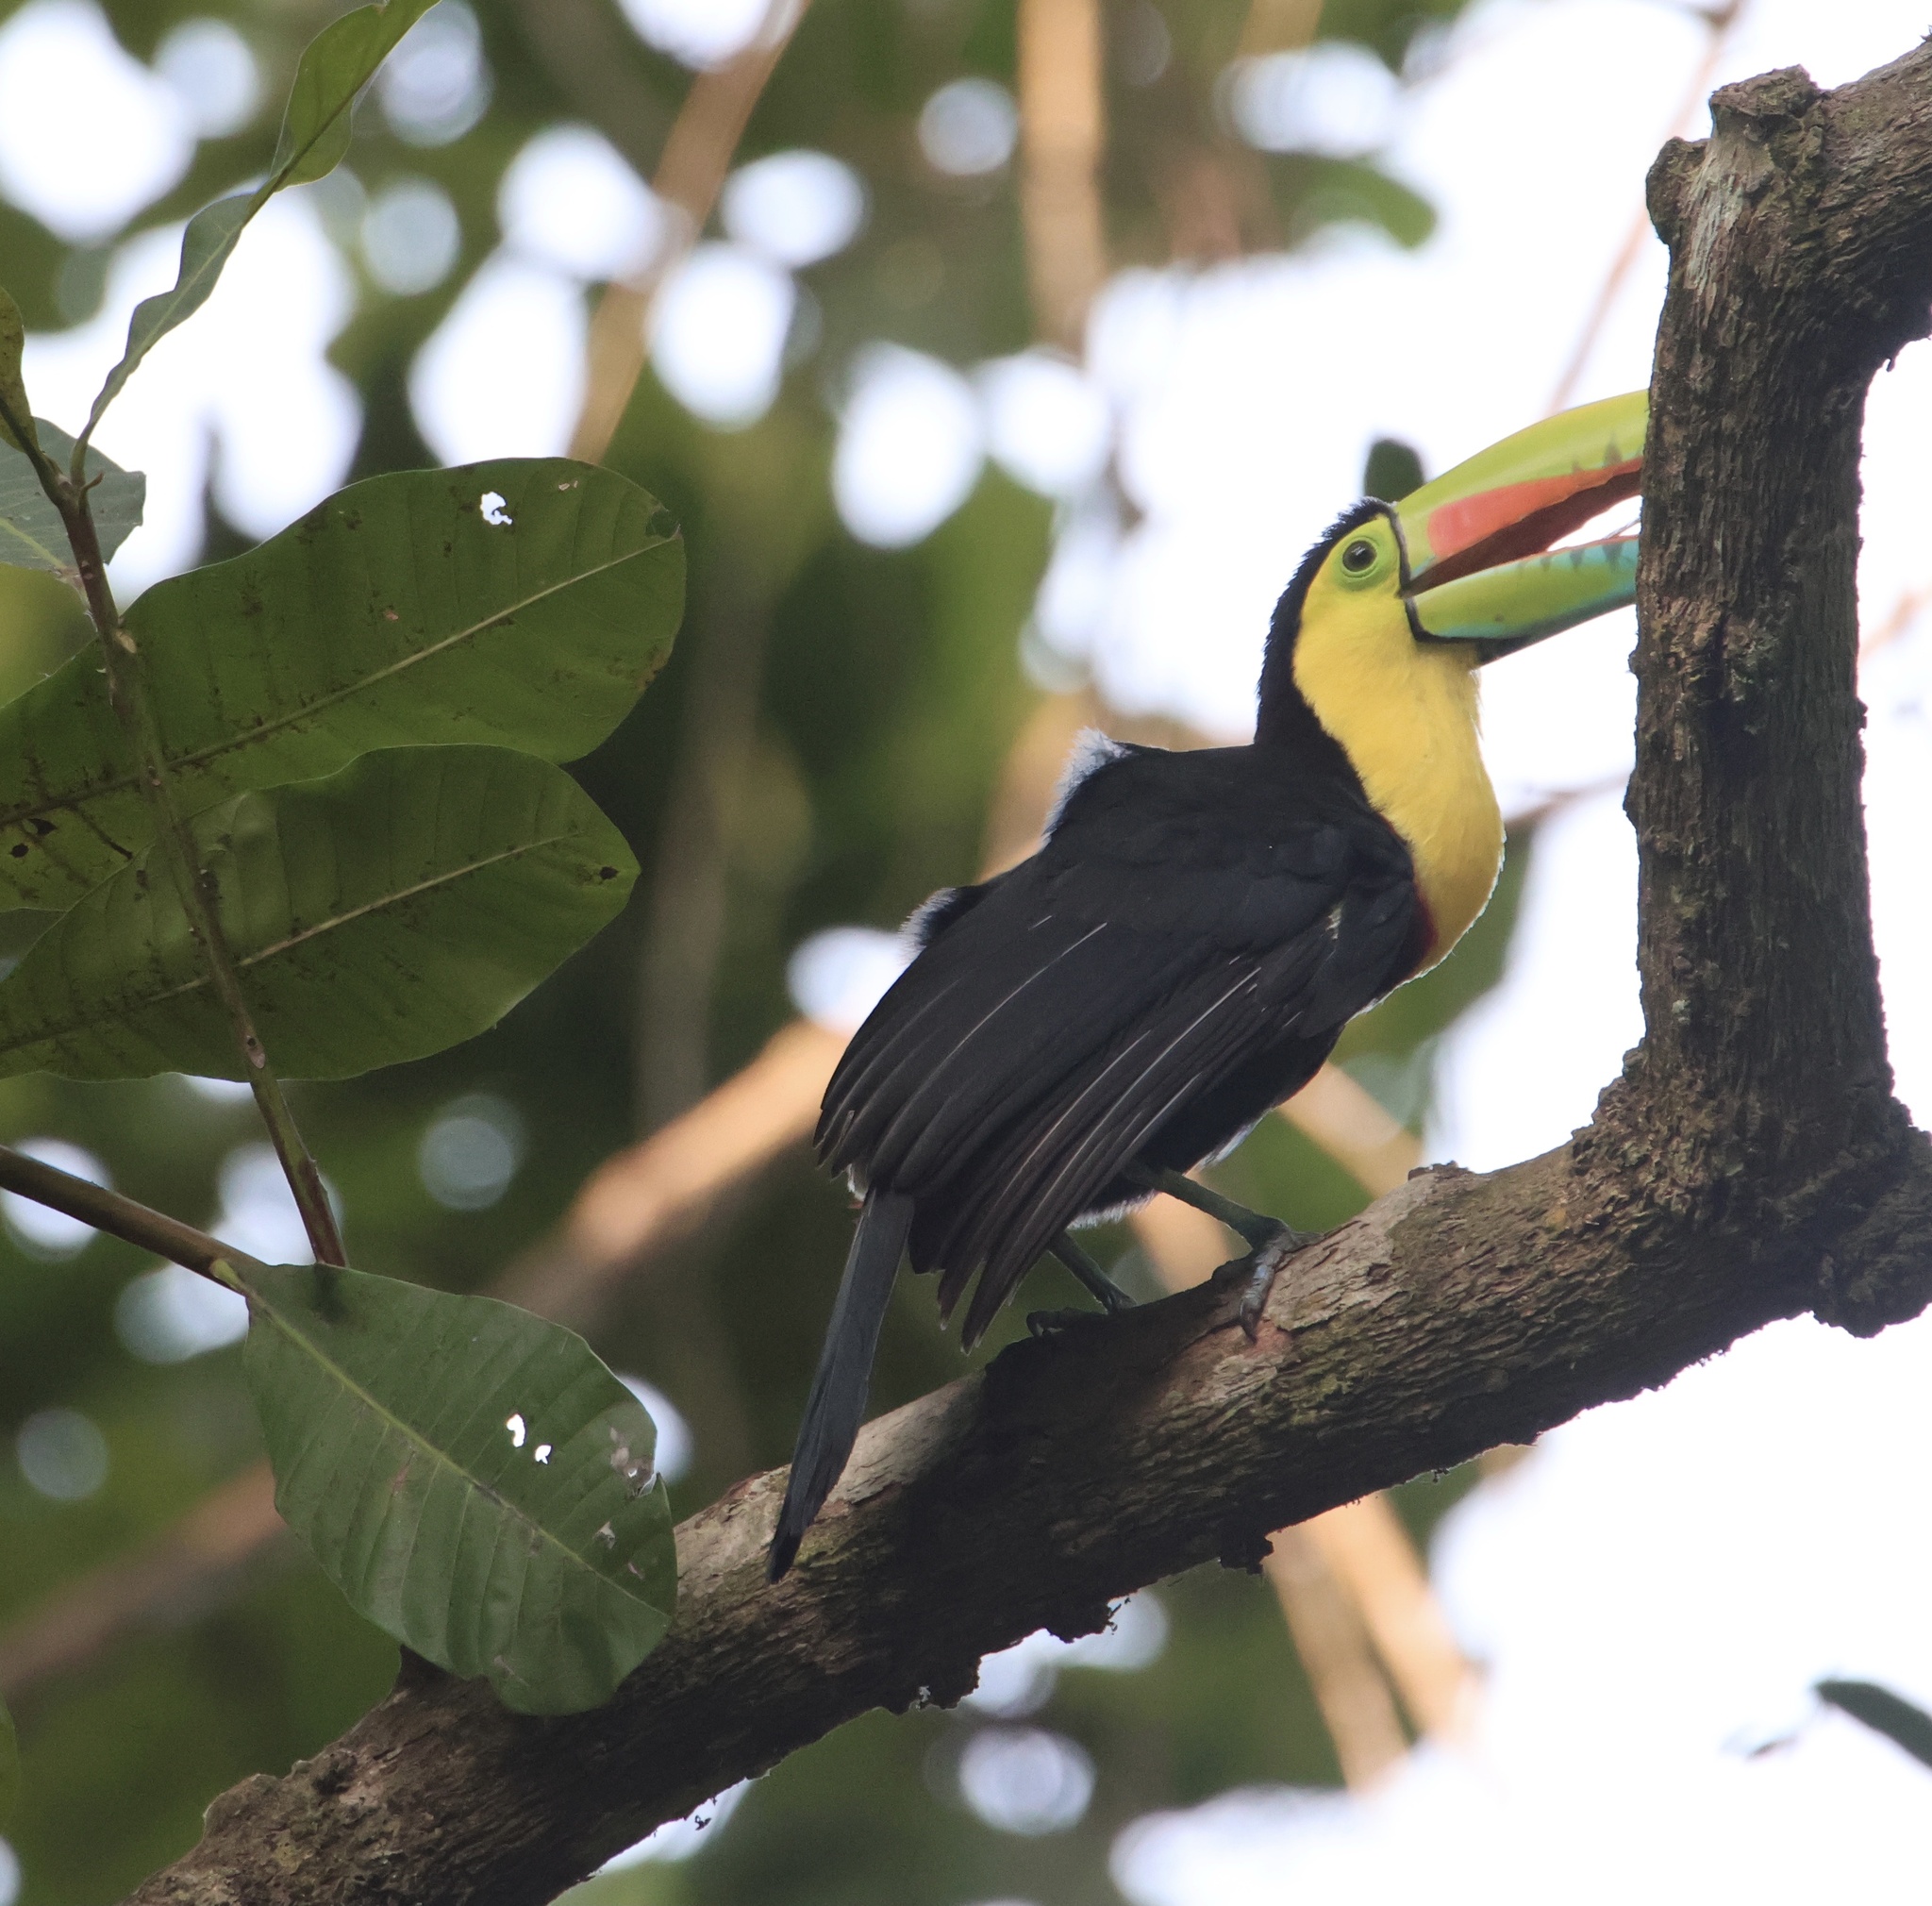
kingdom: Animalia
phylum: Chordata
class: Aves
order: Piciformes
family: Ramphastidae
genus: Ramphastos
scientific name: Ramphastos sulfuratus
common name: Keel-billed toucan
